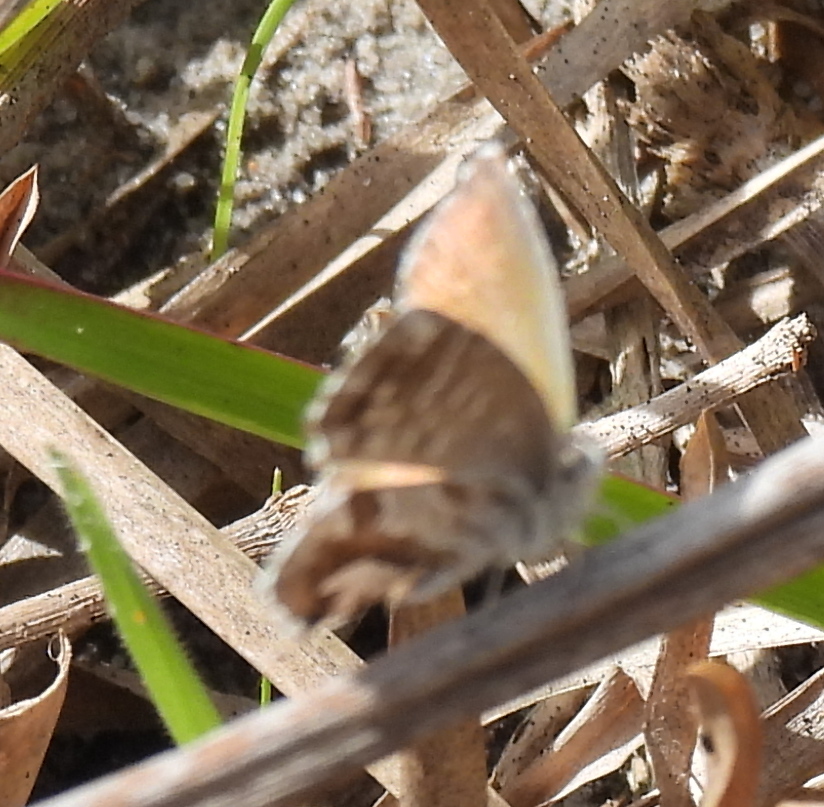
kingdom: Animalia
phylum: Arthropoda
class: Insecta
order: Lepidoptera
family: Lycaenidae
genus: Cacyreus
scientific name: Cacyreus fracta
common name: Water bronze
